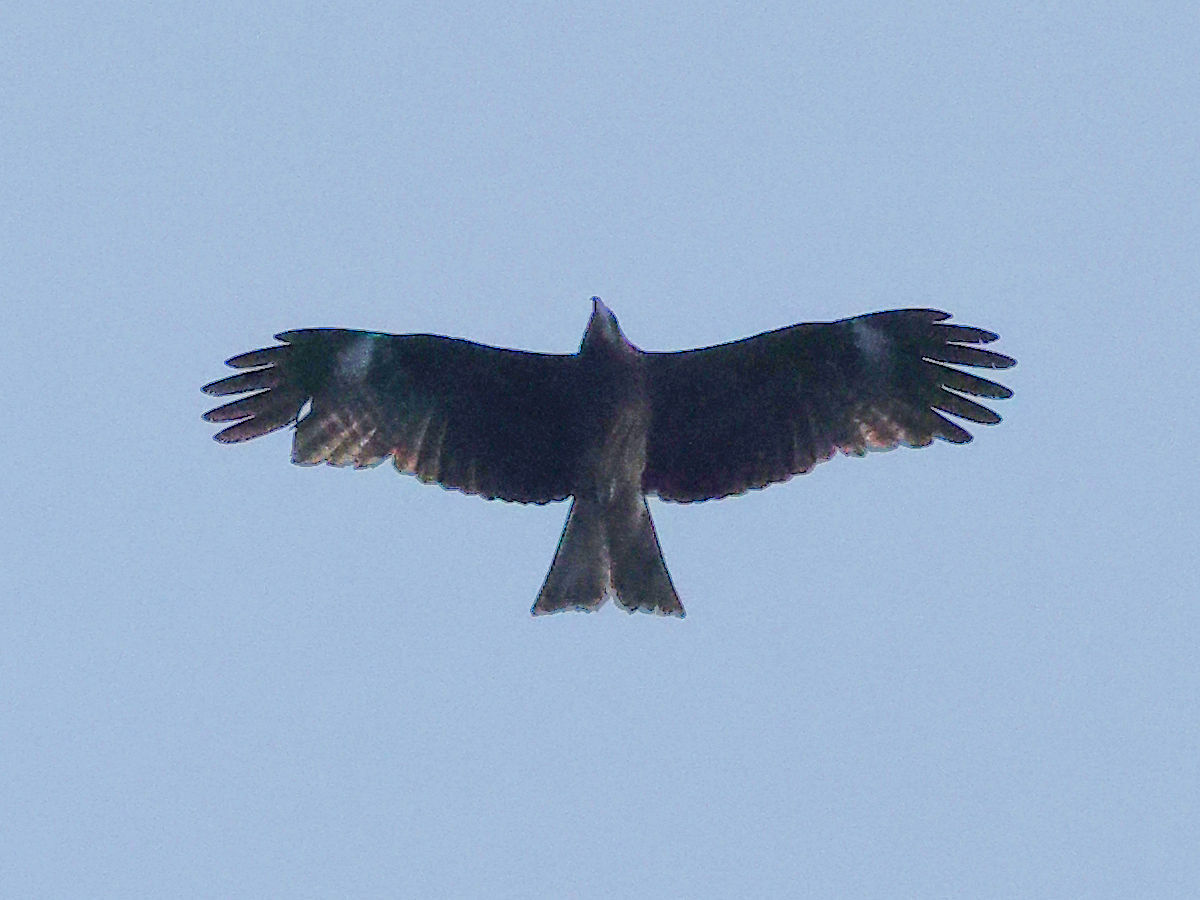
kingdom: Animalia
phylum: Chordata
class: Aves
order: Accipitriformes
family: Accipitridae
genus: Milvus
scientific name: Milvus migrans
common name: Black kite
